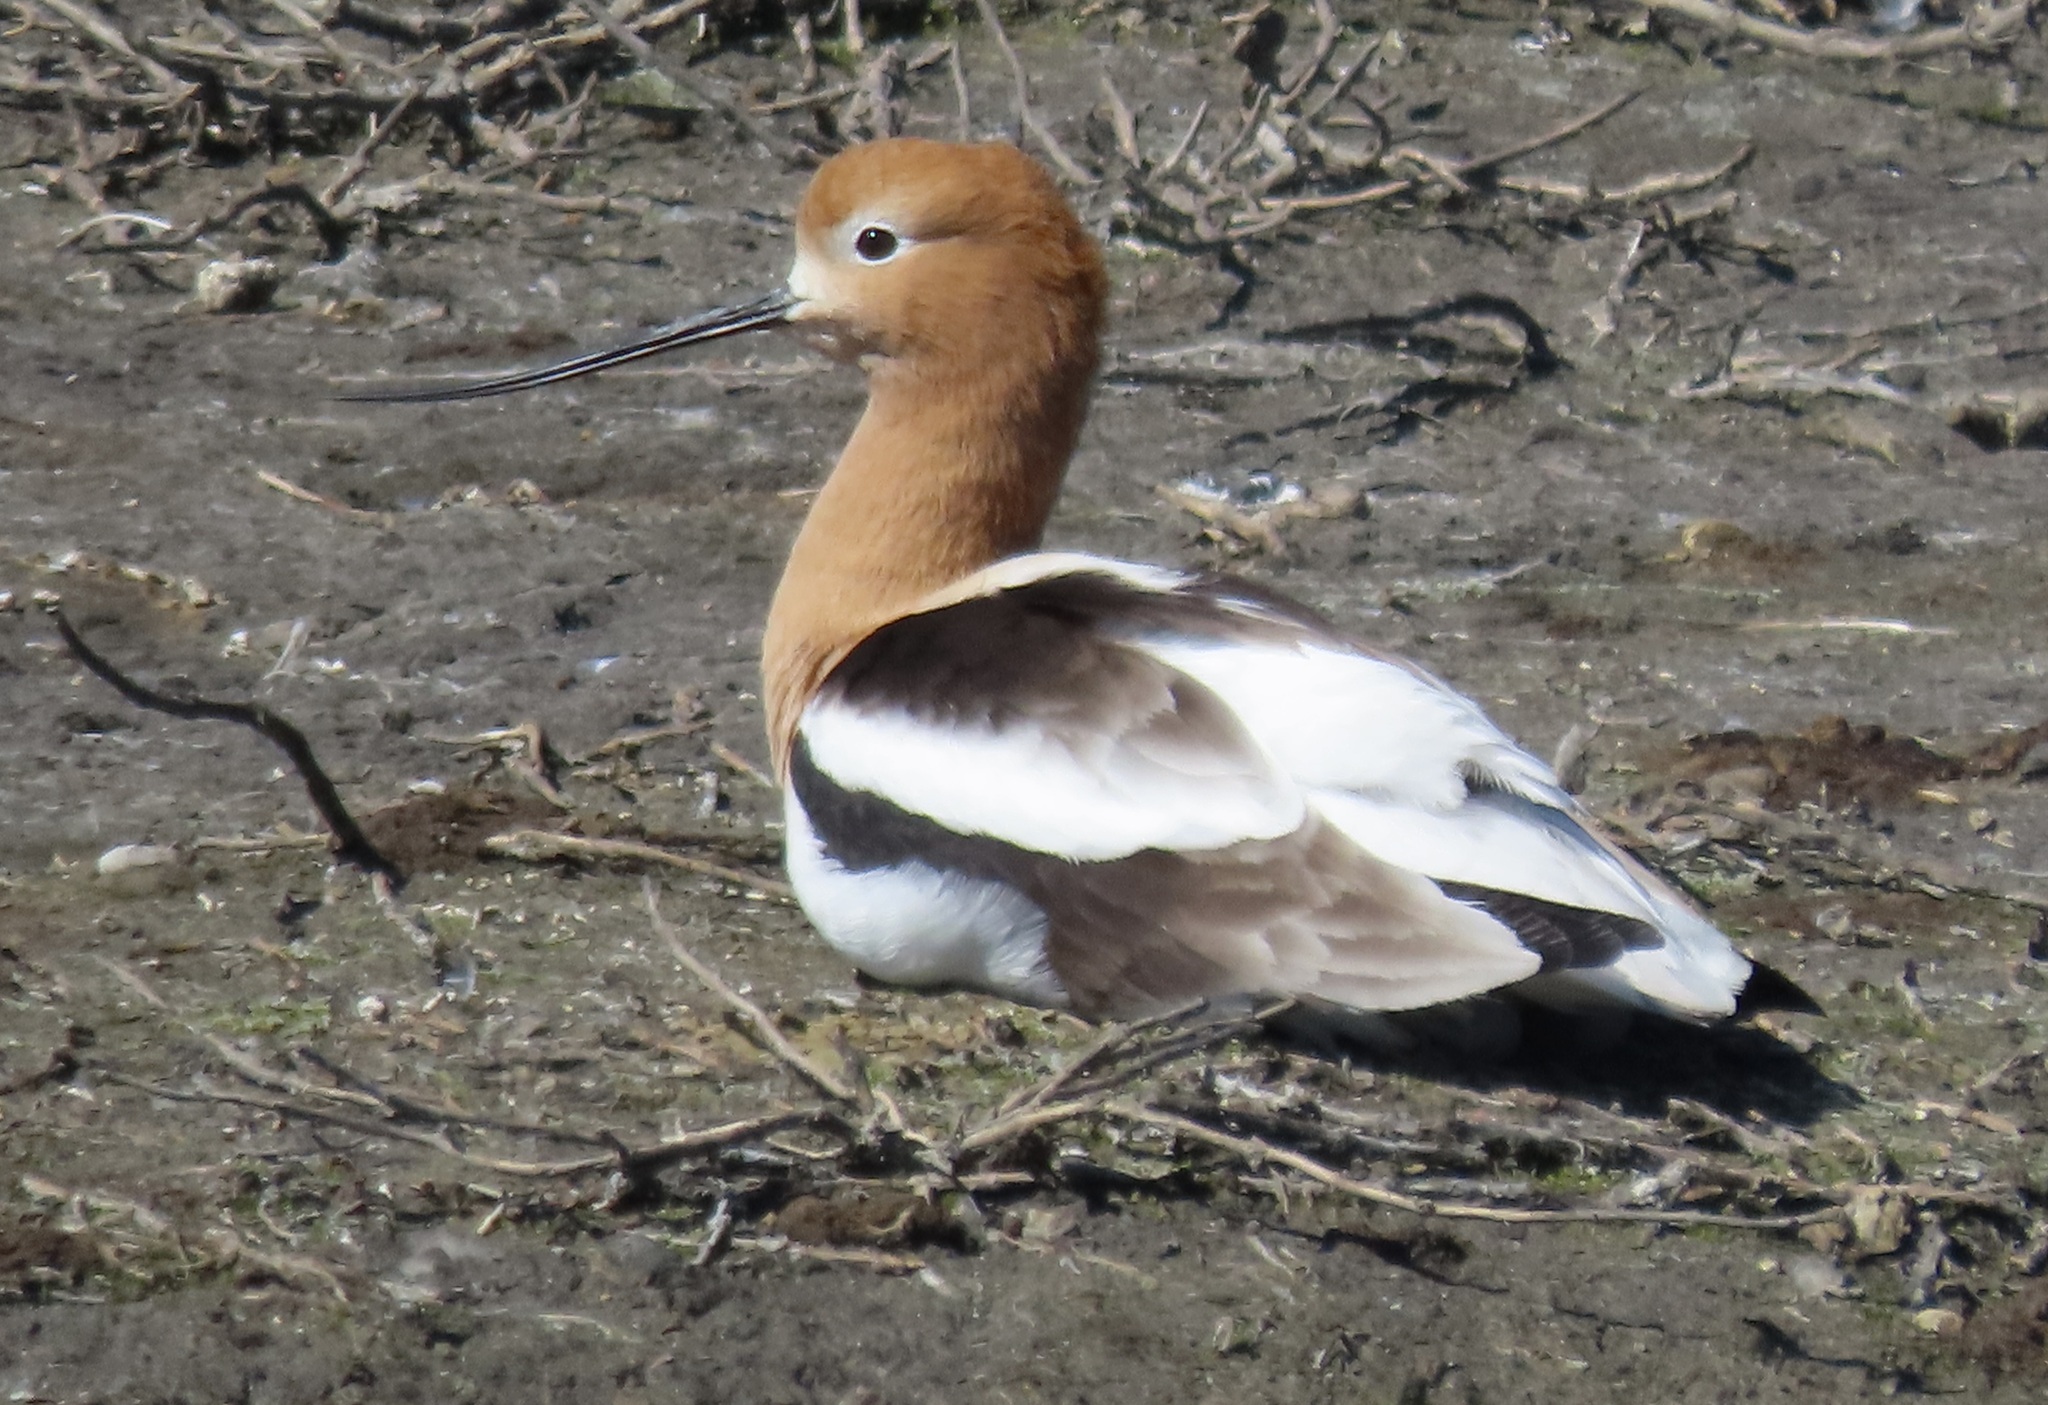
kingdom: Animalia
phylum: Chordata
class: Aves
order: Charadriiformes
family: Recurvirostridae
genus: Recurvirostra
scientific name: Recurvirostra americana
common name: American avocet
